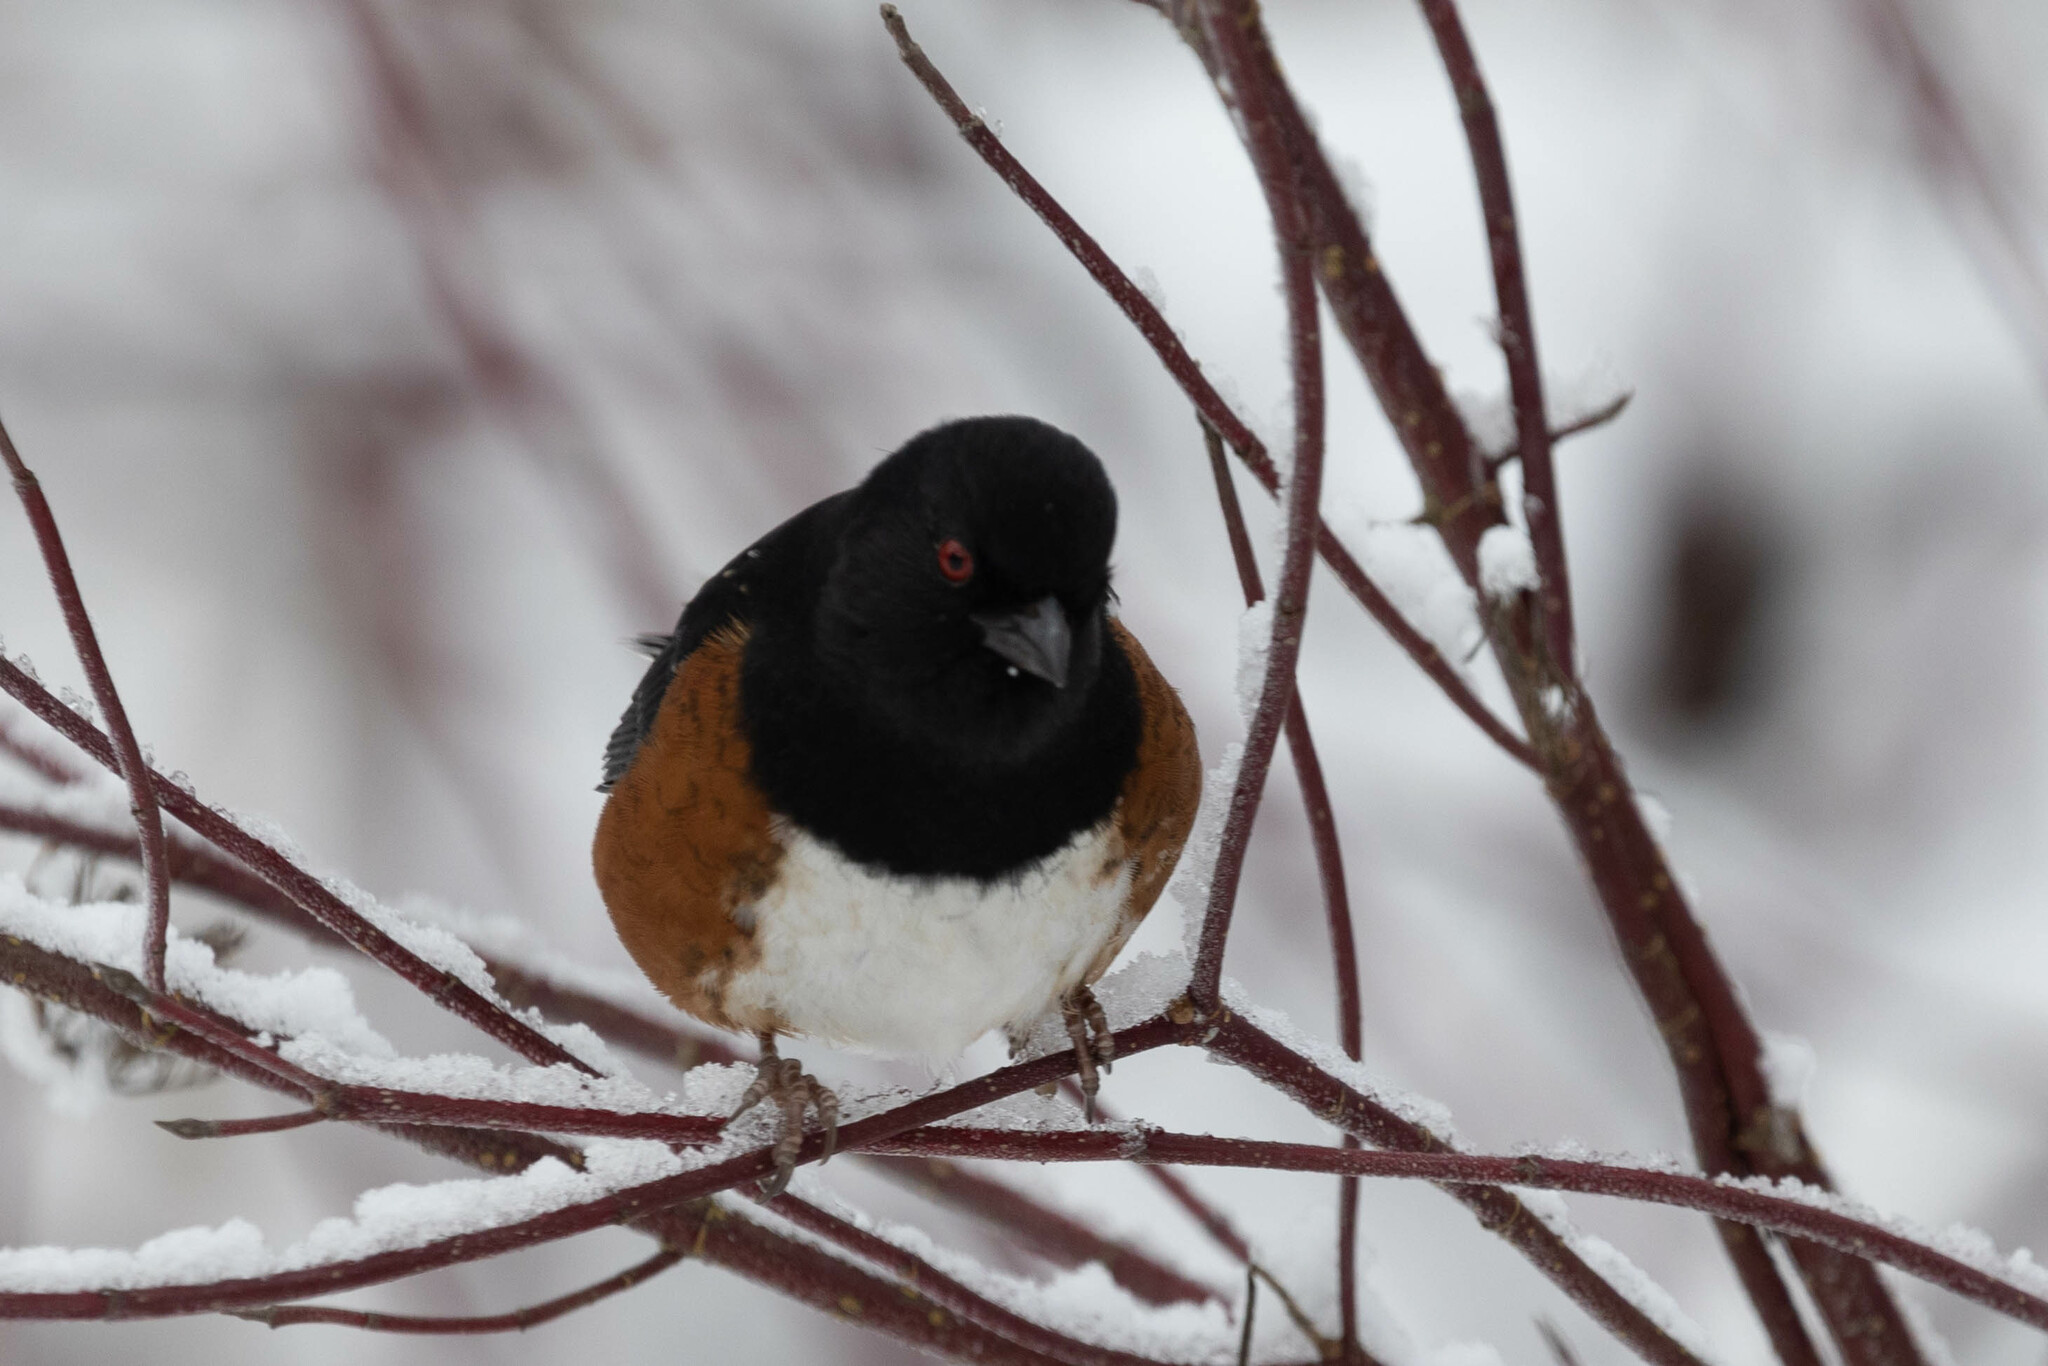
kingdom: Animalia
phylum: Chordata
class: Aves
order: Passeriformes
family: Passerellidae
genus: Pipilo
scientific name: Pipilo maculatus
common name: Spotted towhee
